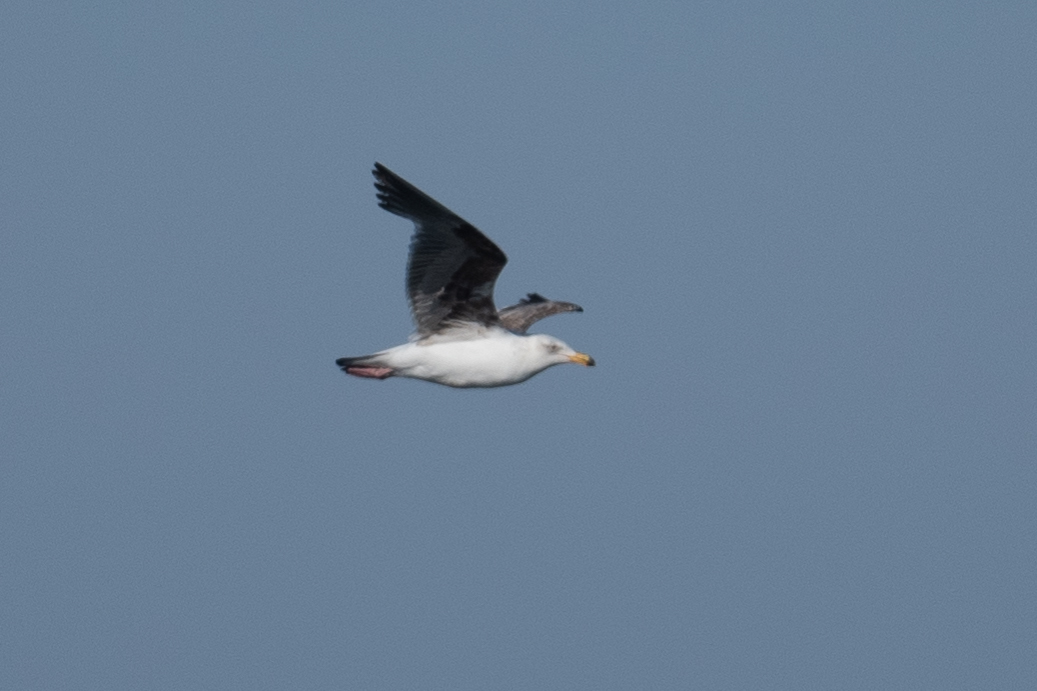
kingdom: Animalia
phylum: Chordata
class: Aves
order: Charadriiformes
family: Laridae
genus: Larus
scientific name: Larus occidentalis
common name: Western gull
